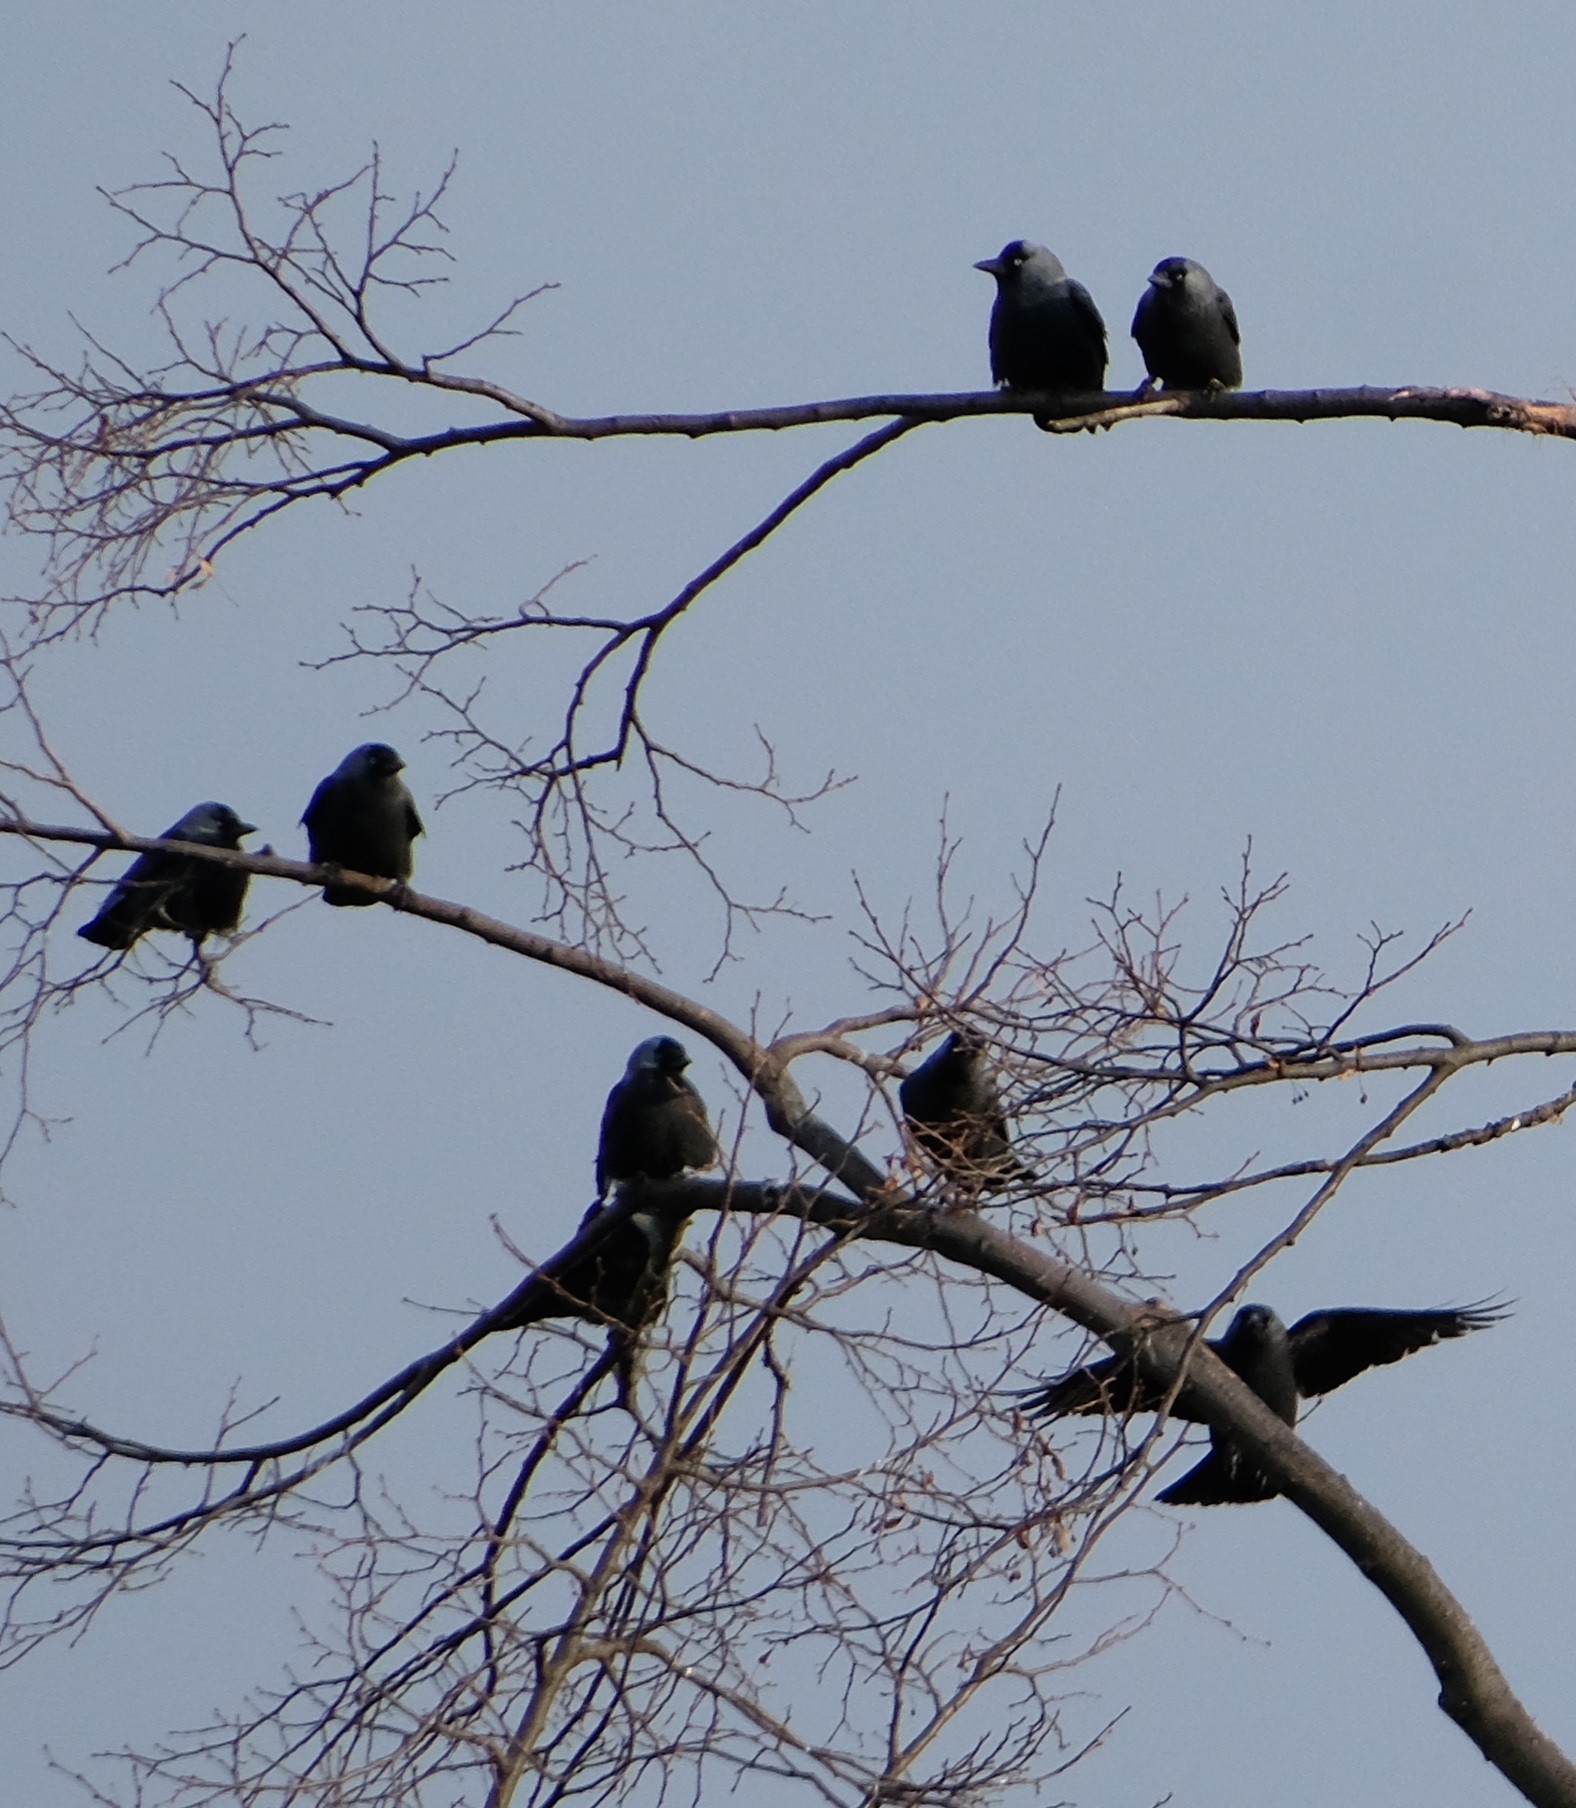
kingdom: Animalia
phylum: Chordata
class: Aves
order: Passeriformes
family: Corvidae
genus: Coloeus
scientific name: Coloeus monedula
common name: Western jackdaw
